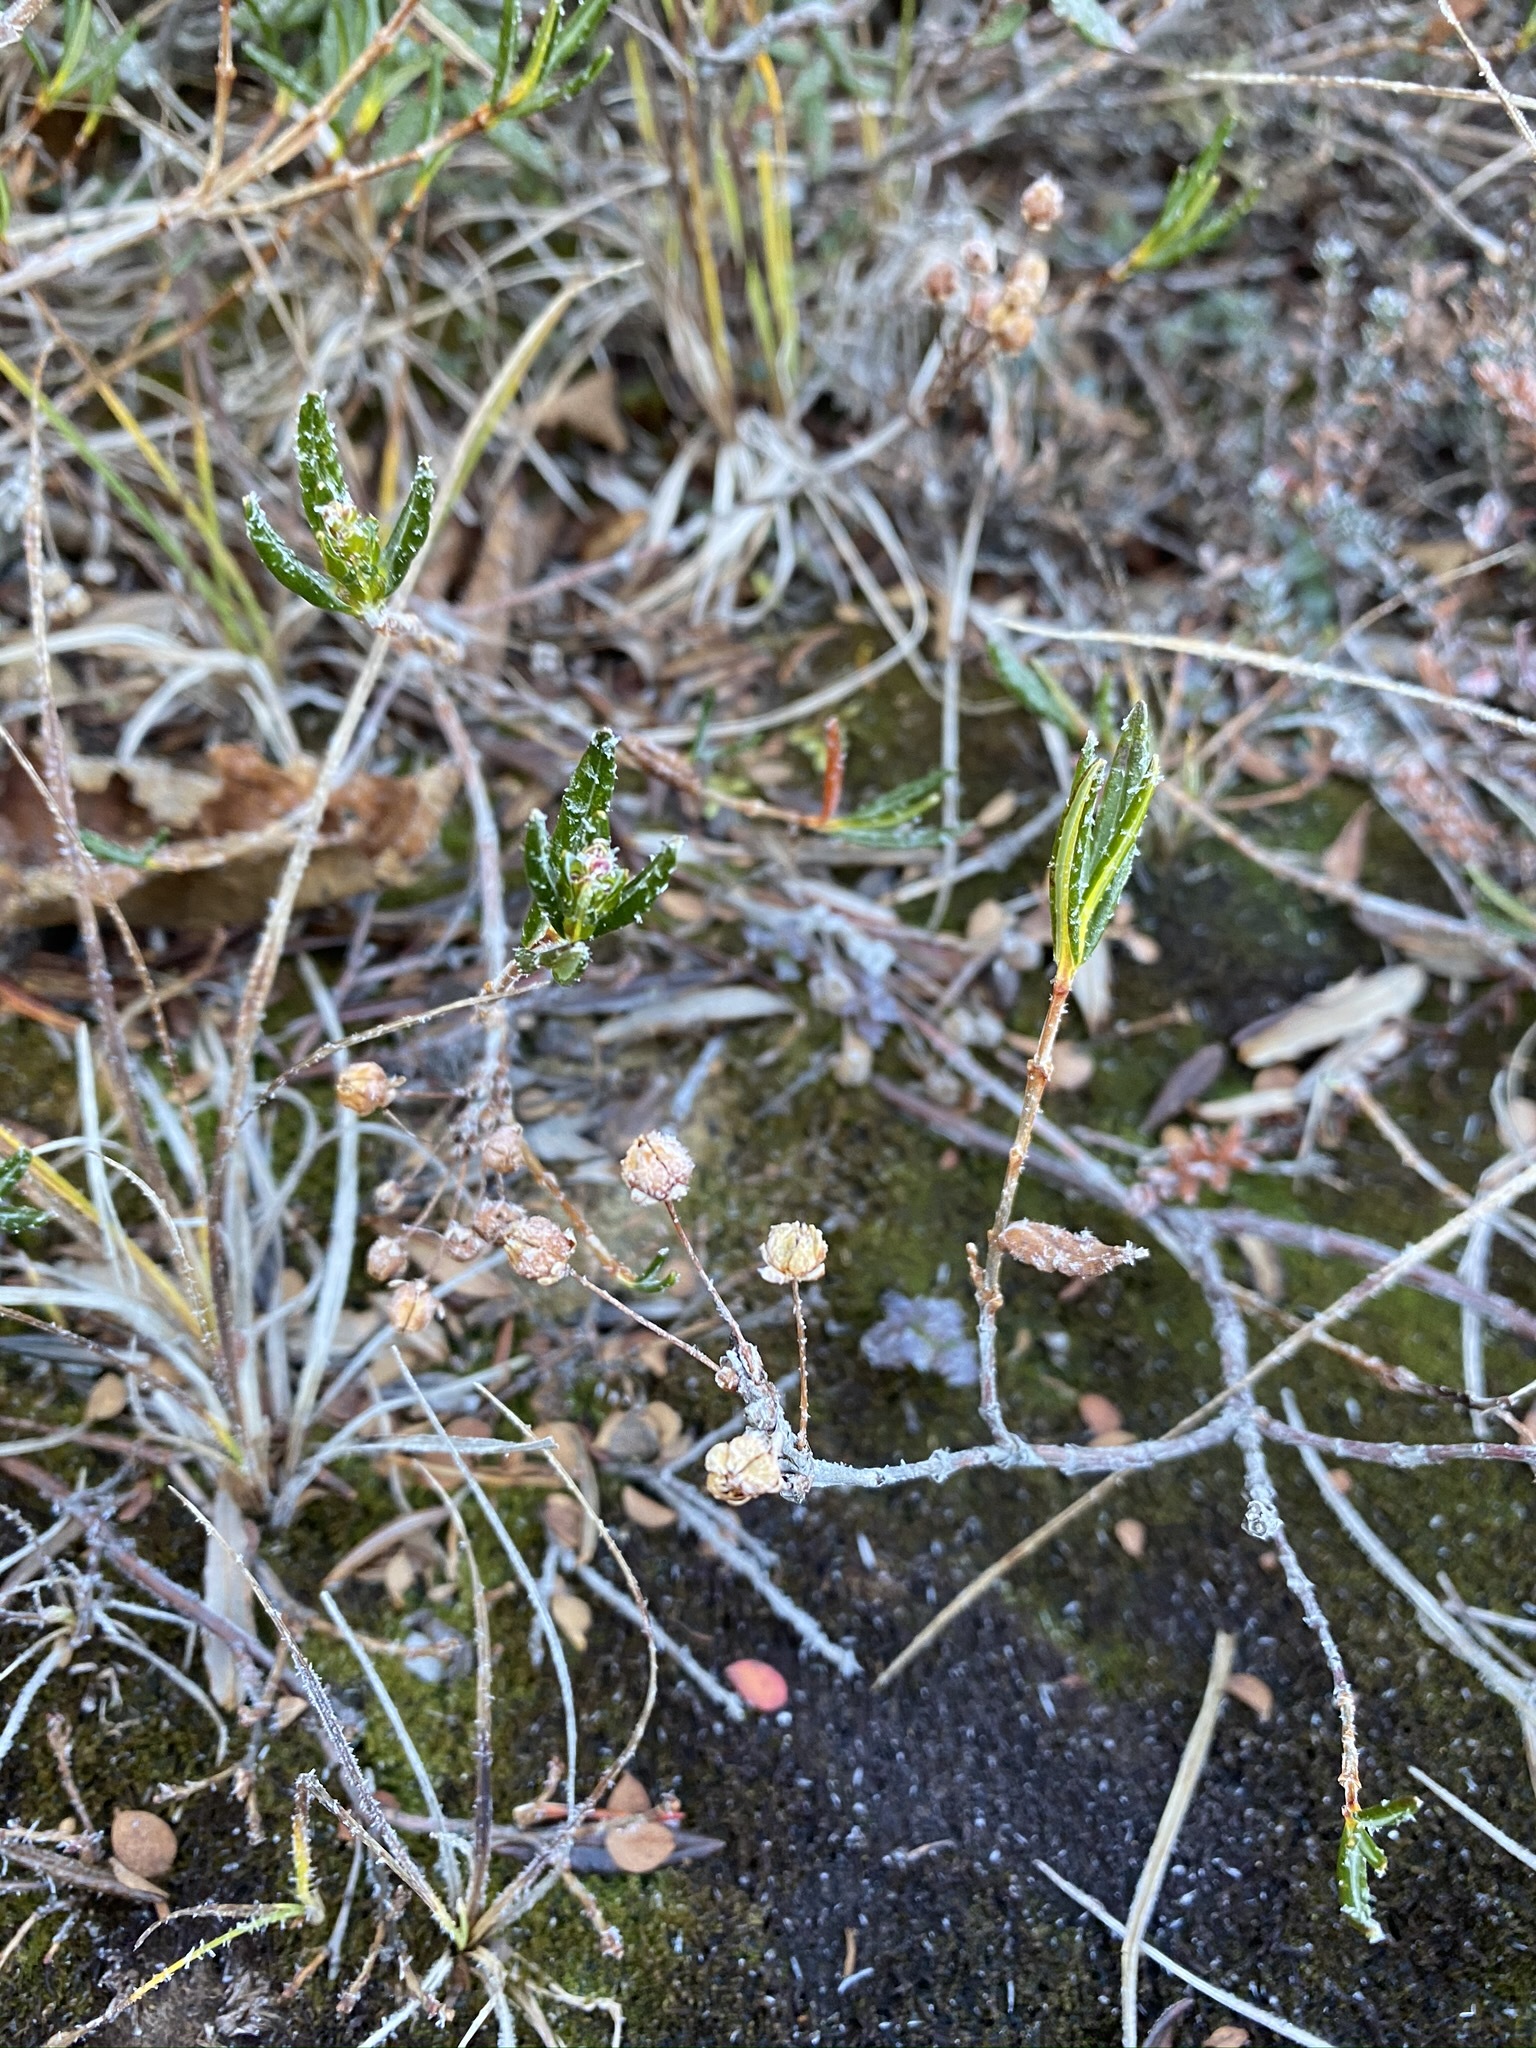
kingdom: Plantae
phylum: Tracheophyta
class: Magnoliopsida
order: Ericales
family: Ericaceae
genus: Kalmia
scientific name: Kalmia polifolia
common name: Bog-laurel
